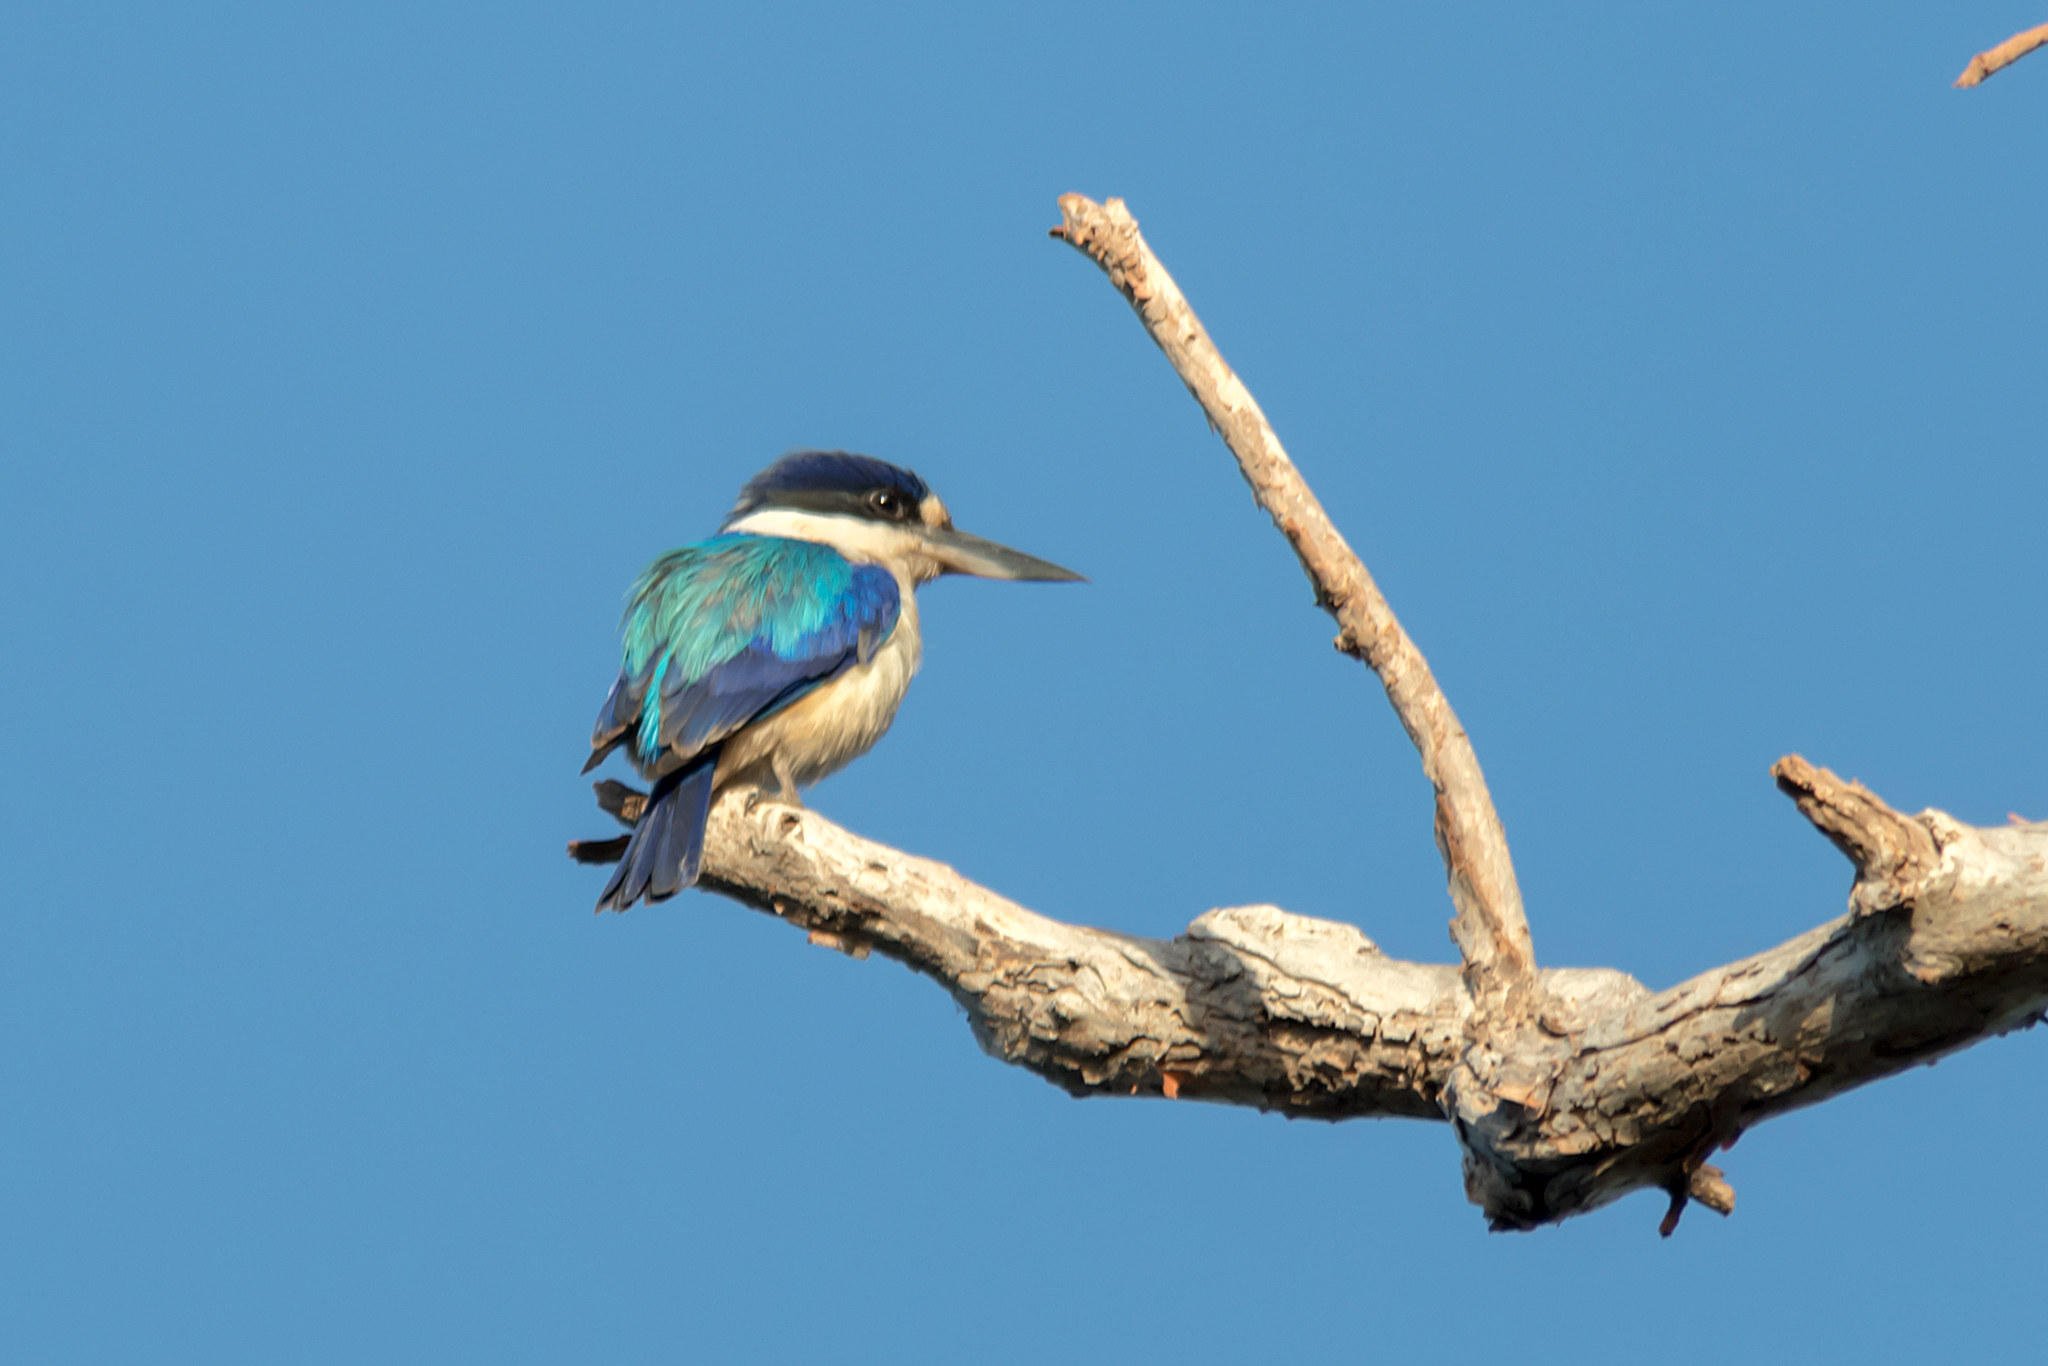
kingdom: Animalia
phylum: Chordata
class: Aves
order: Coraciiformes
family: Alcedinidae
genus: Todiramphus
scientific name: Todiramphus macleayii
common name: Forest kingfisher
